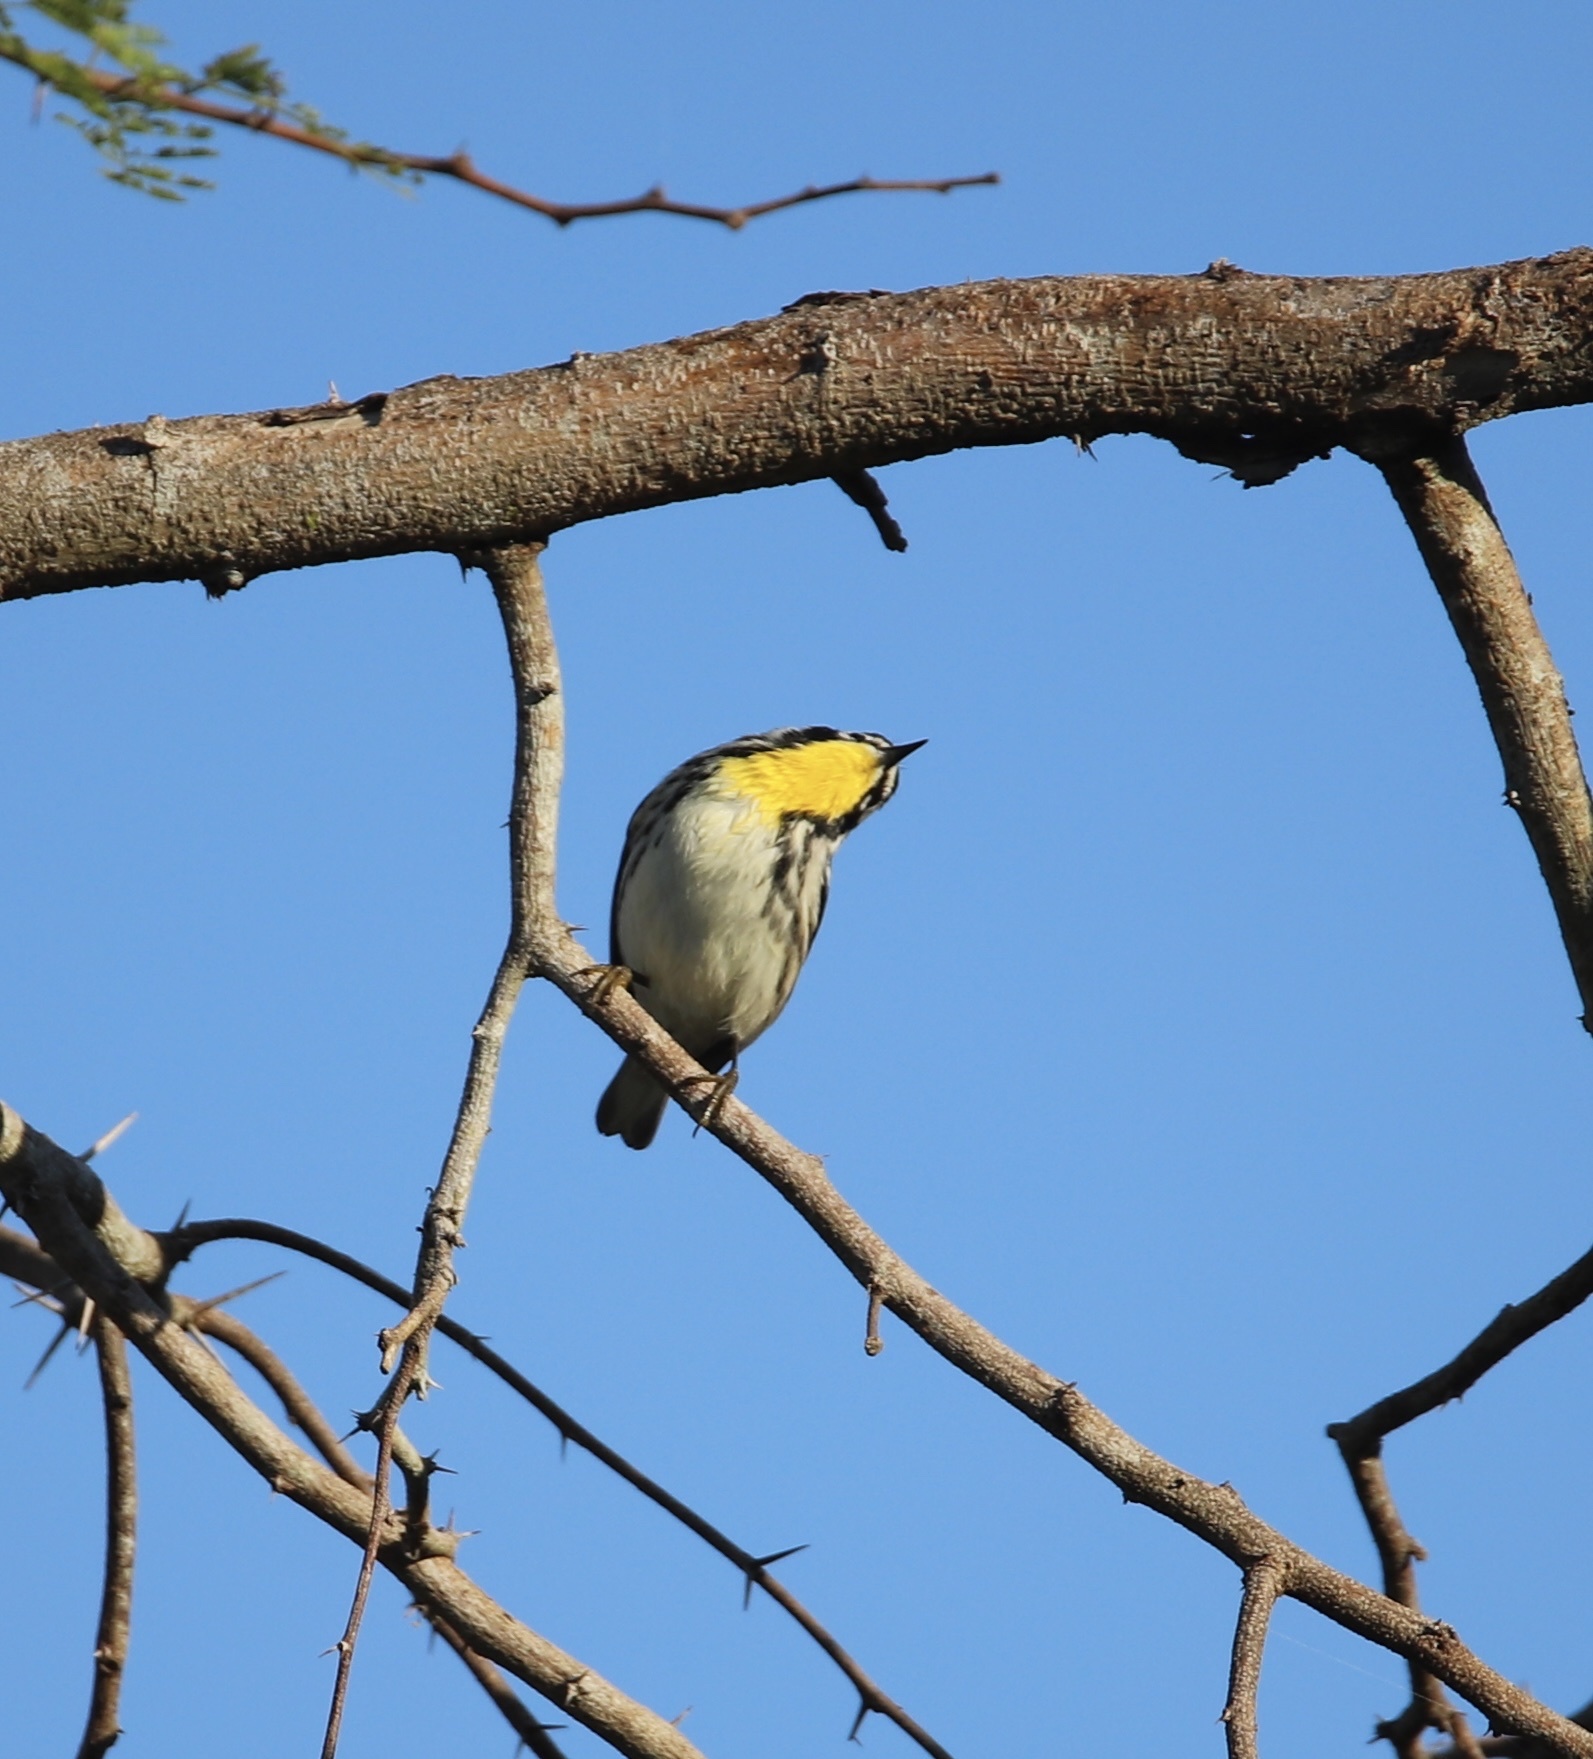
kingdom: Animalia
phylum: Chordata
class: Aves
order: Passeriformes
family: Parulidae
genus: Setophaga
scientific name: Setophaga dominica
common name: Yellow-throated warbler
